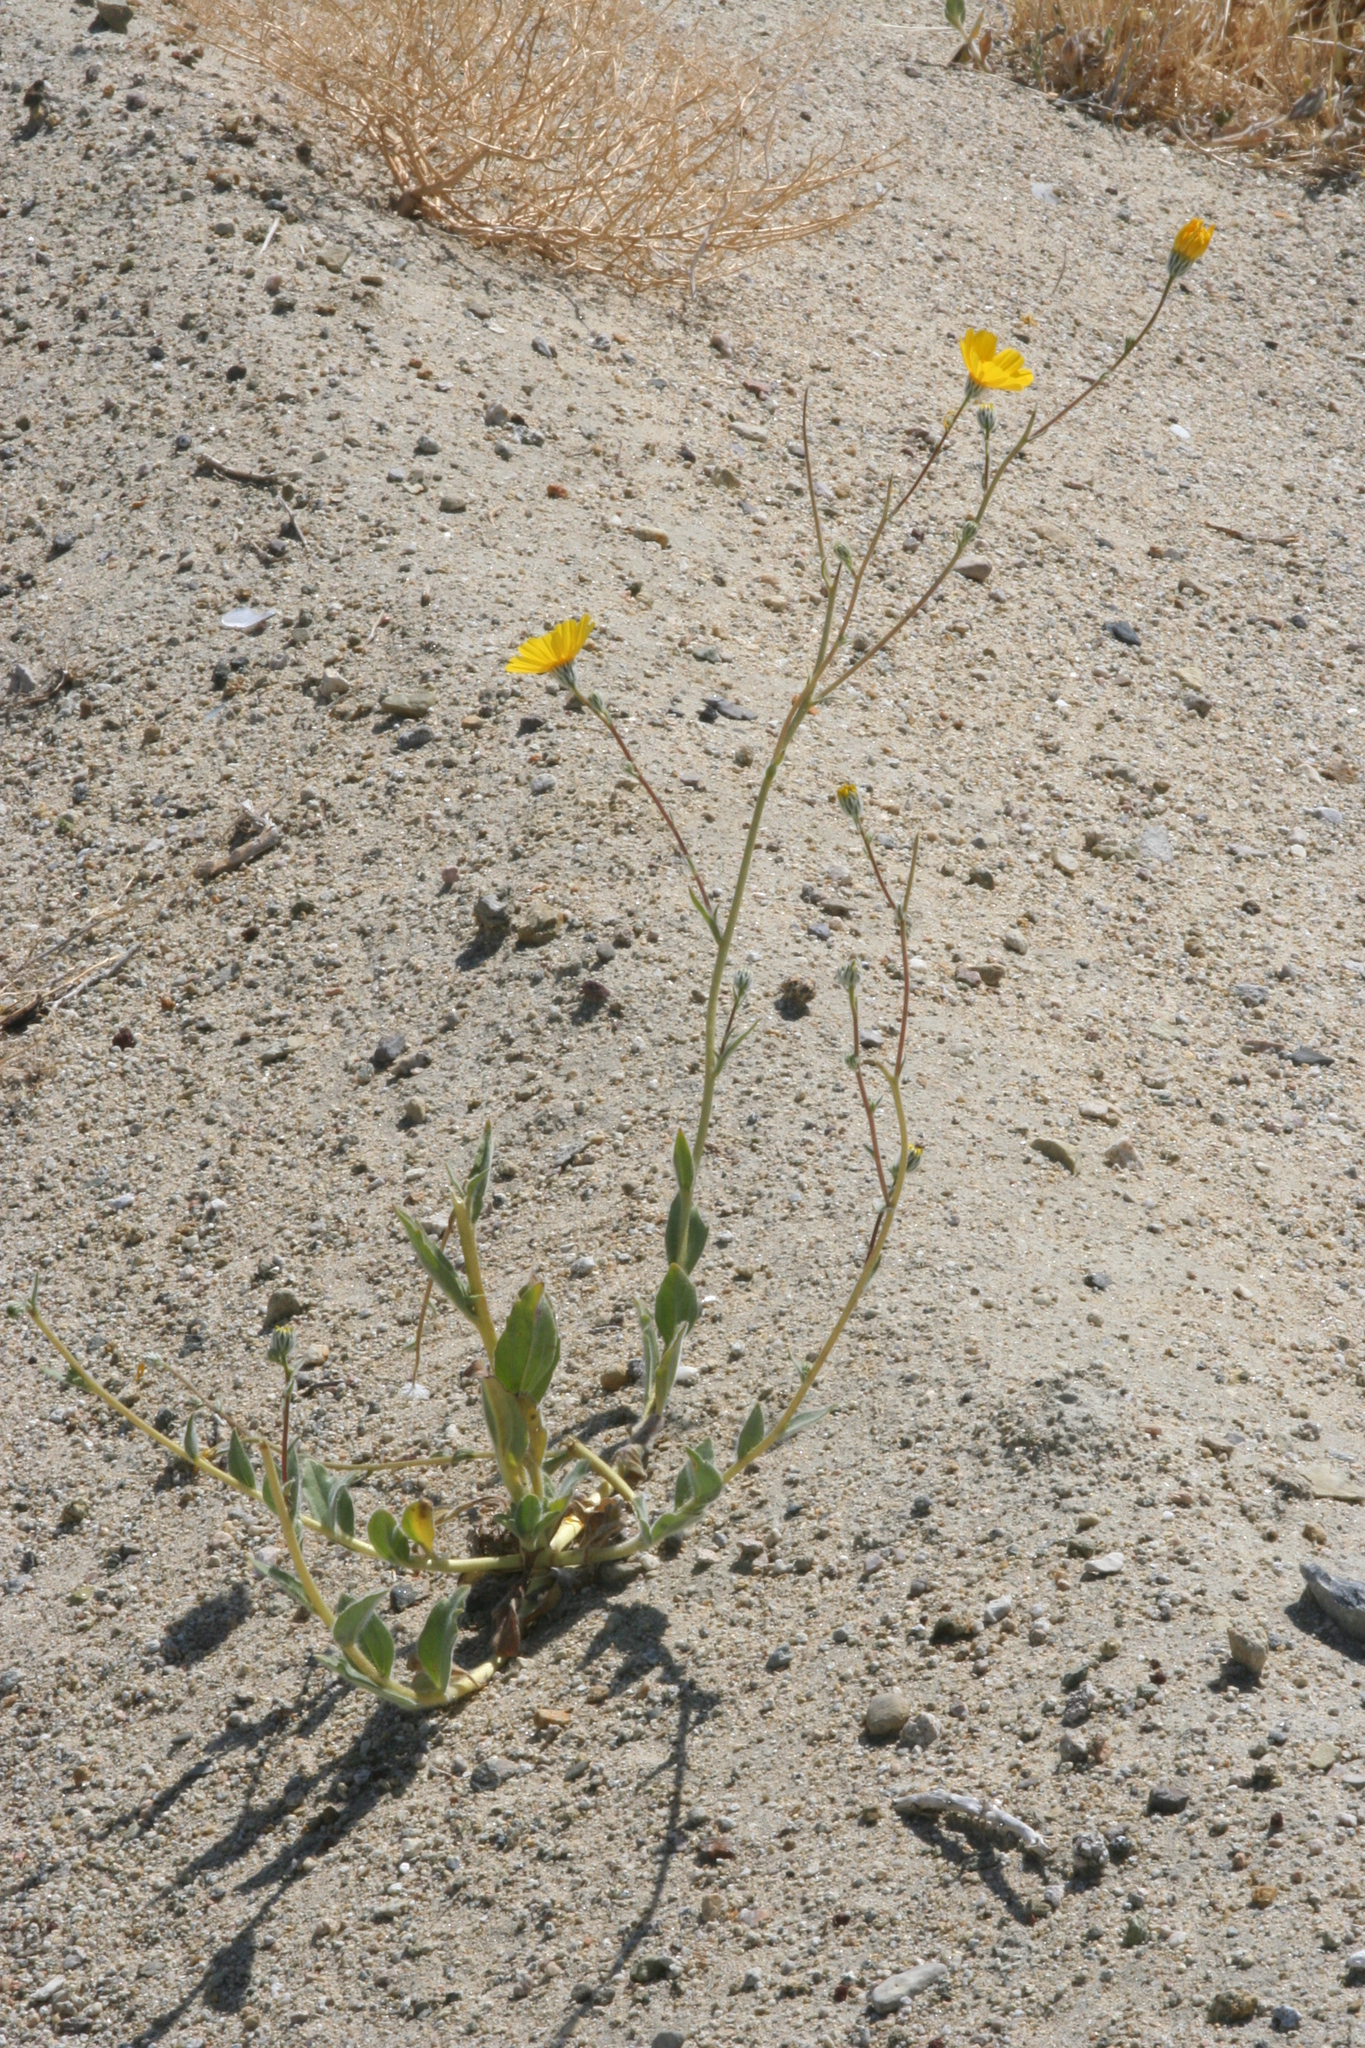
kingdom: Plantae
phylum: Tracheophyta
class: Magnoliopsida
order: Asterales
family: Asteraceae
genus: Geraea
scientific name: Geraea canescens
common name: Desert-gold
